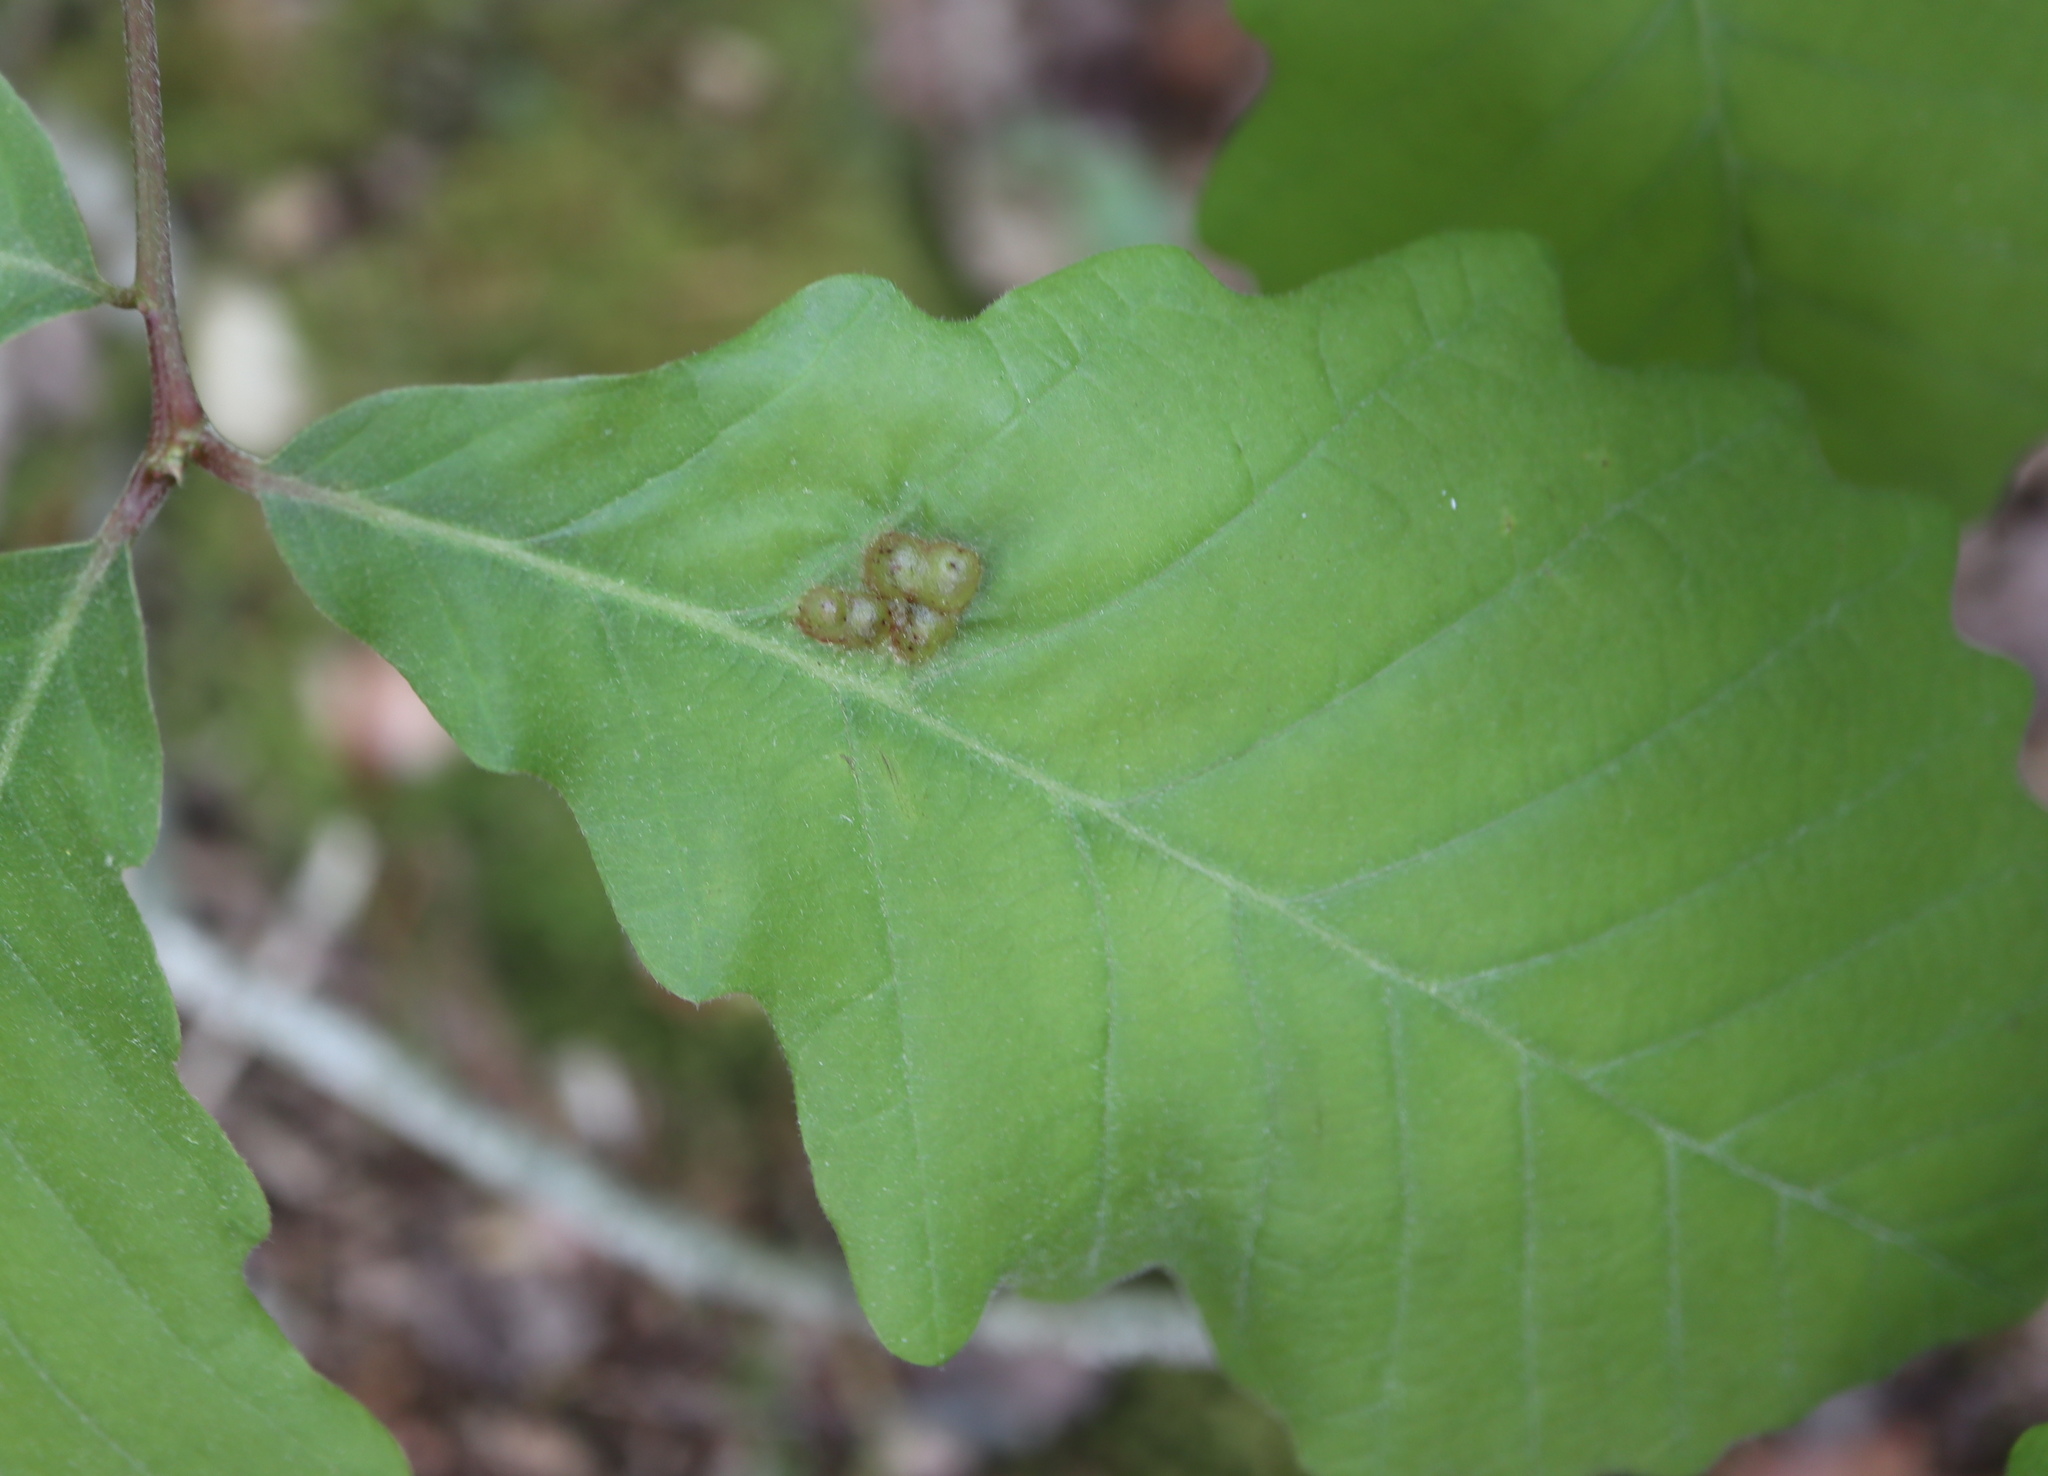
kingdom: Animalia
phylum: Arthropoda
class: Insecta
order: Hymenoptera
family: Cynipidae
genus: Neuroterus
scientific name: Neuroterus quercusirregularis
